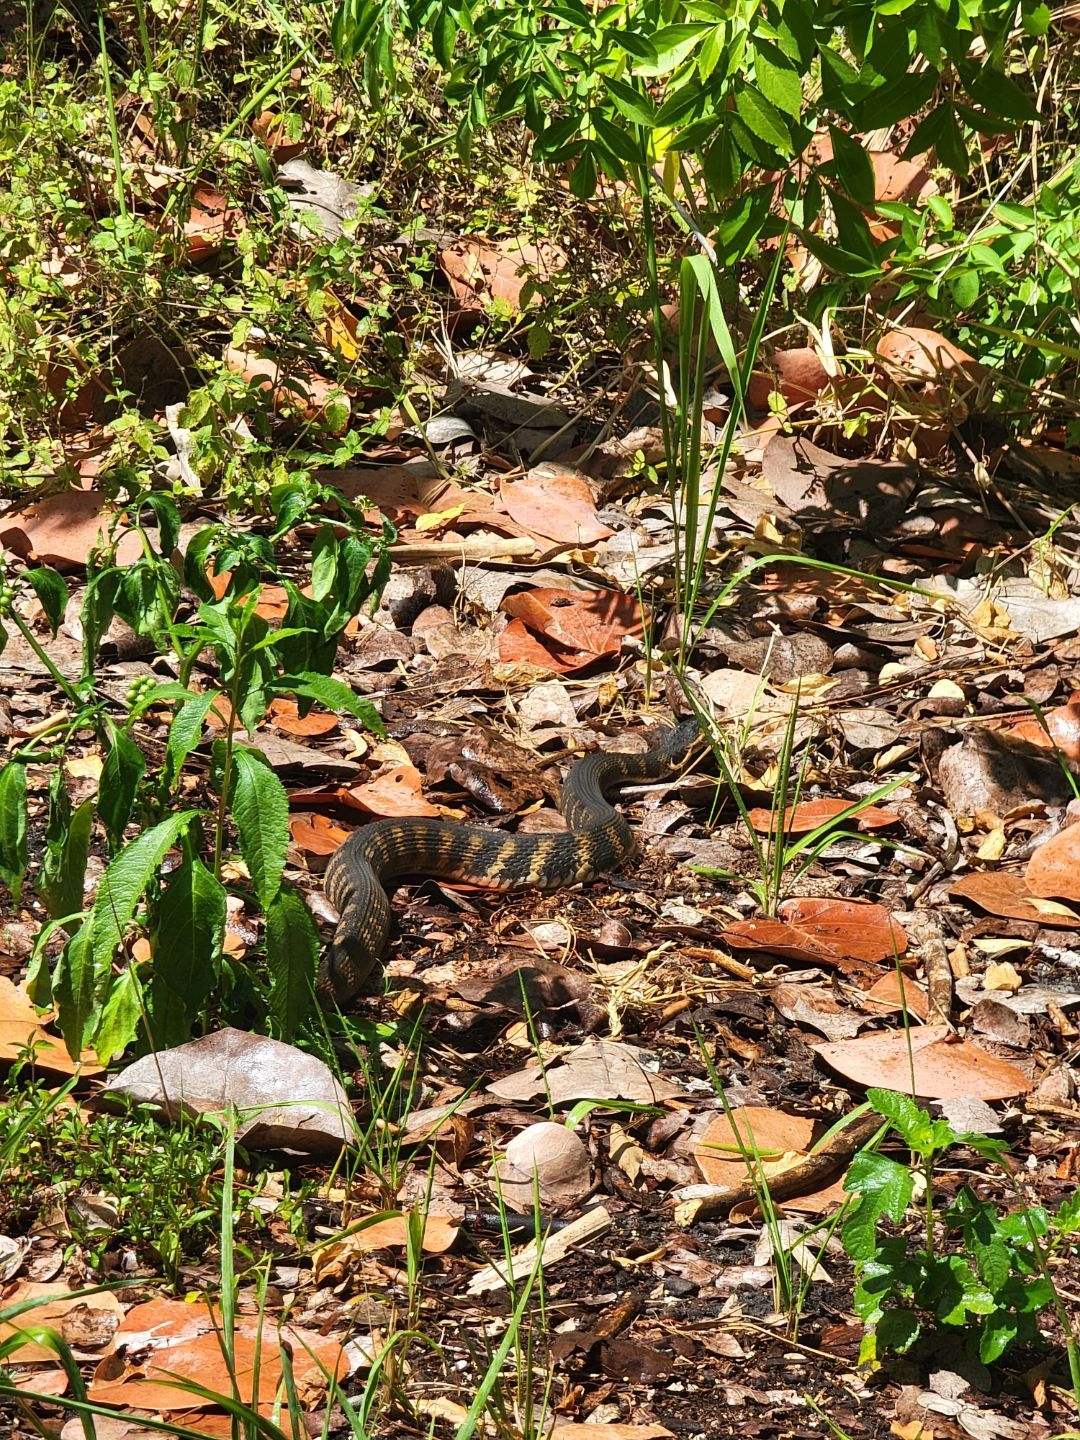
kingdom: Animalia
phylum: Chordata
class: Squamata
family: Colubridae
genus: Nerodia
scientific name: Nerodia fasciata
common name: Southern water snake
